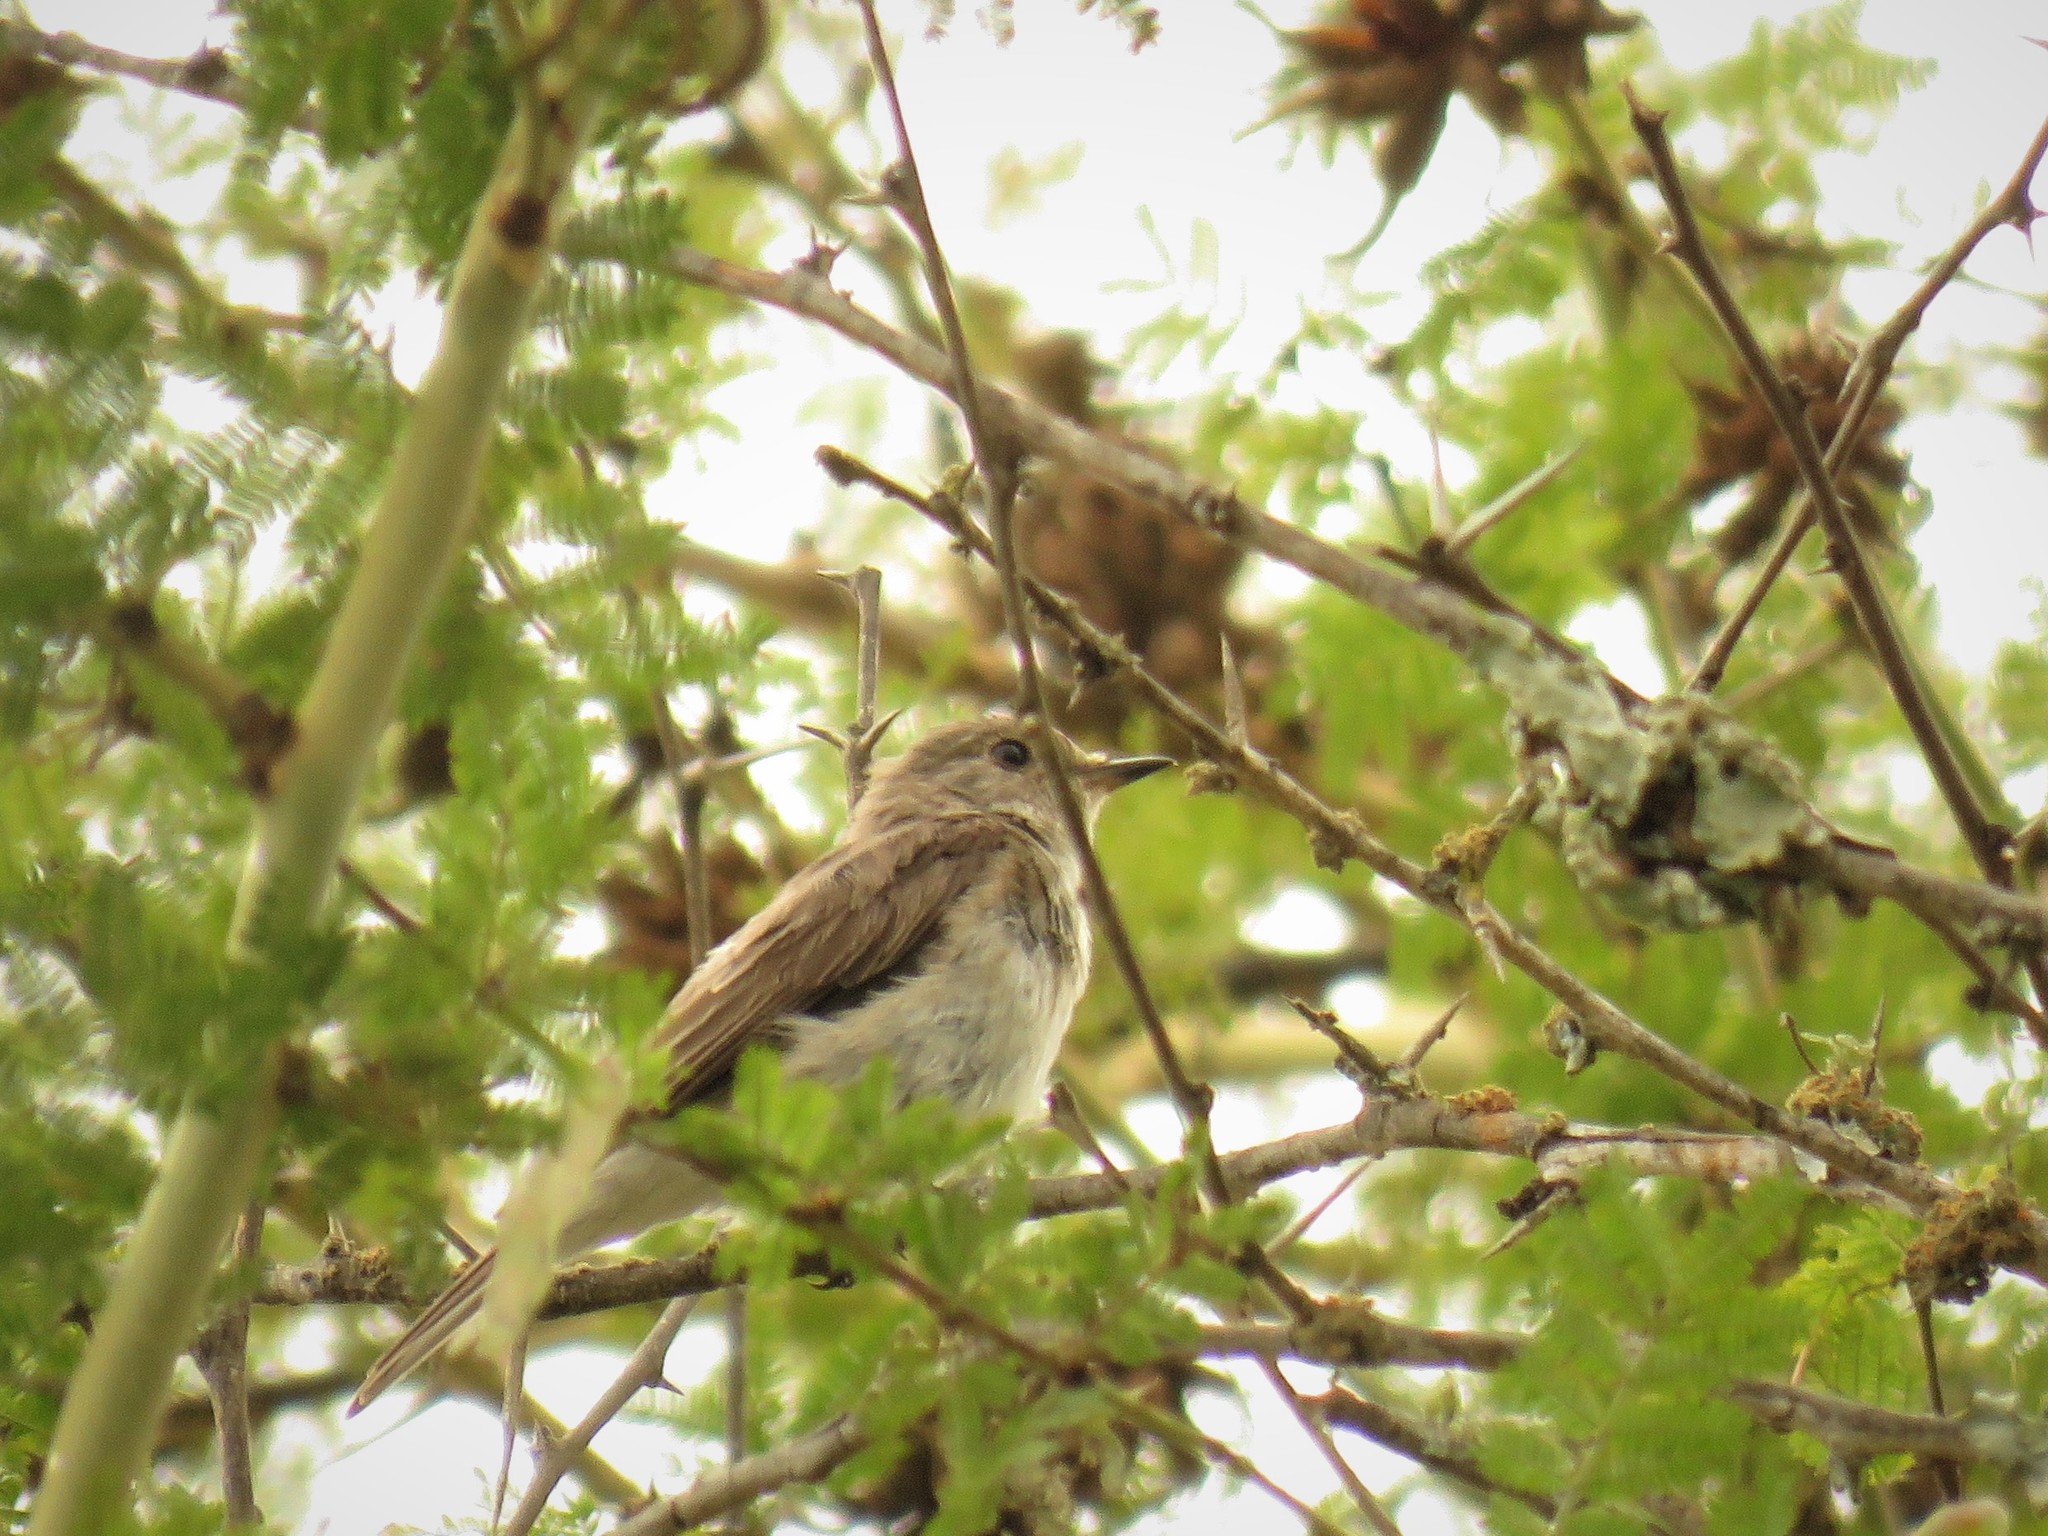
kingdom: Animalia
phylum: Chordata
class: Aves
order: Passeriformes
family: Muscicapidae
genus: Muscicapa
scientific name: Muscicapa striata
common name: Spotted flycatcher
